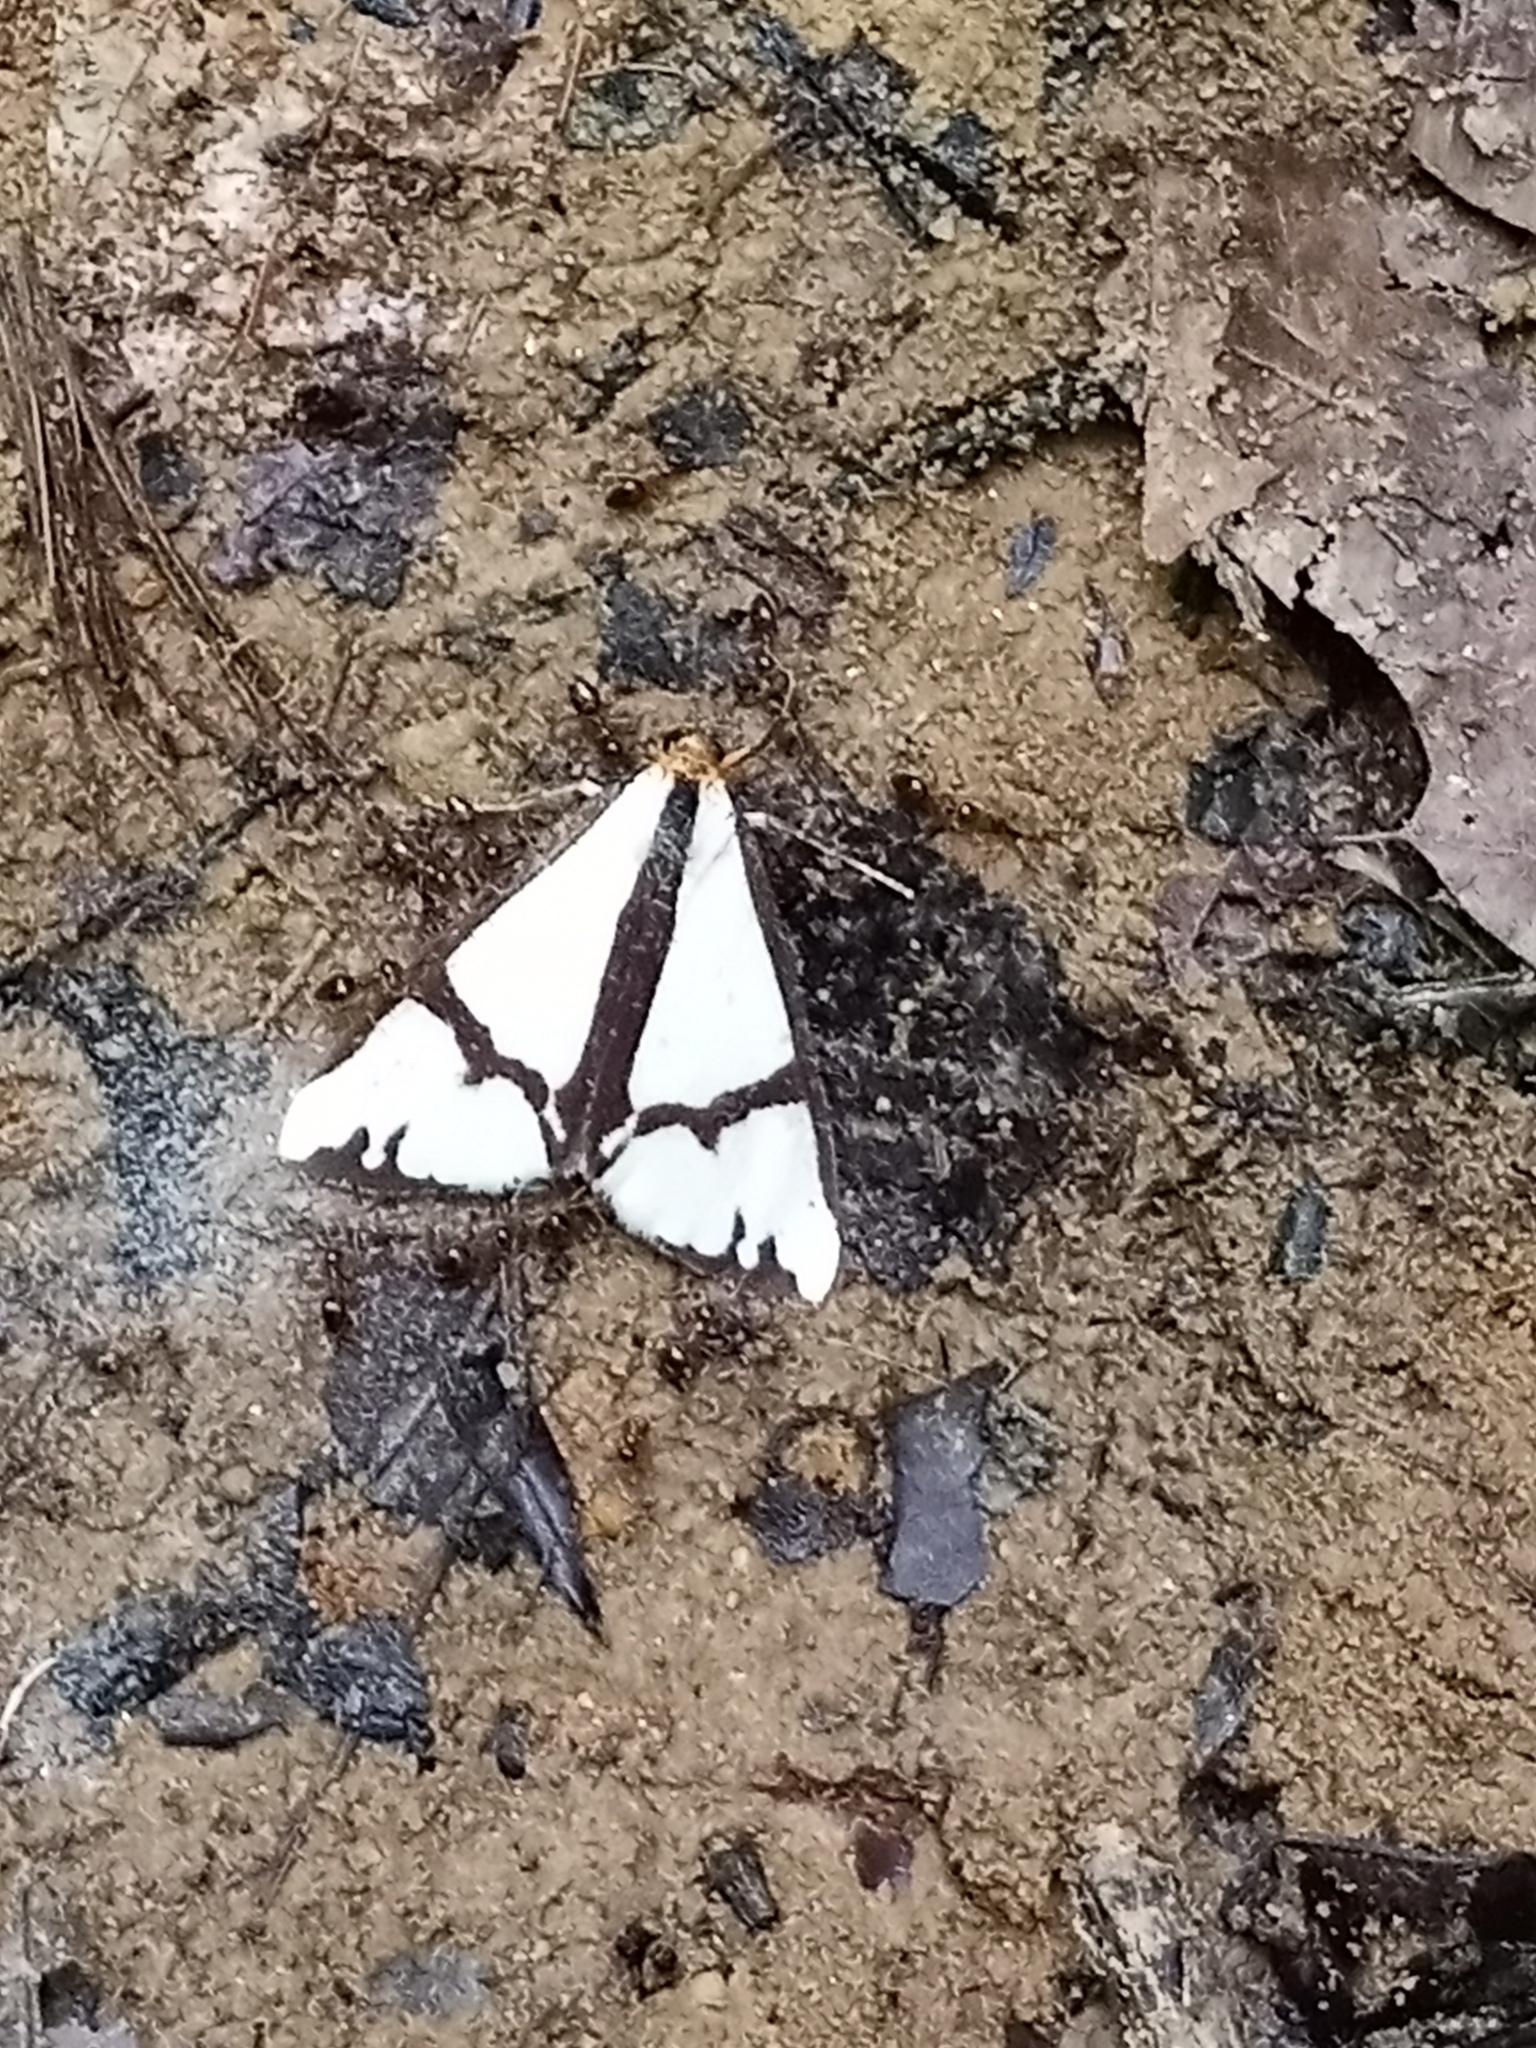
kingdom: Animalia
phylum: Arthropoda
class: Insecta
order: Lepidoptera
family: Erebidae
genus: Haploa
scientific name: Haploa contigua
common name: Neighbor moth
